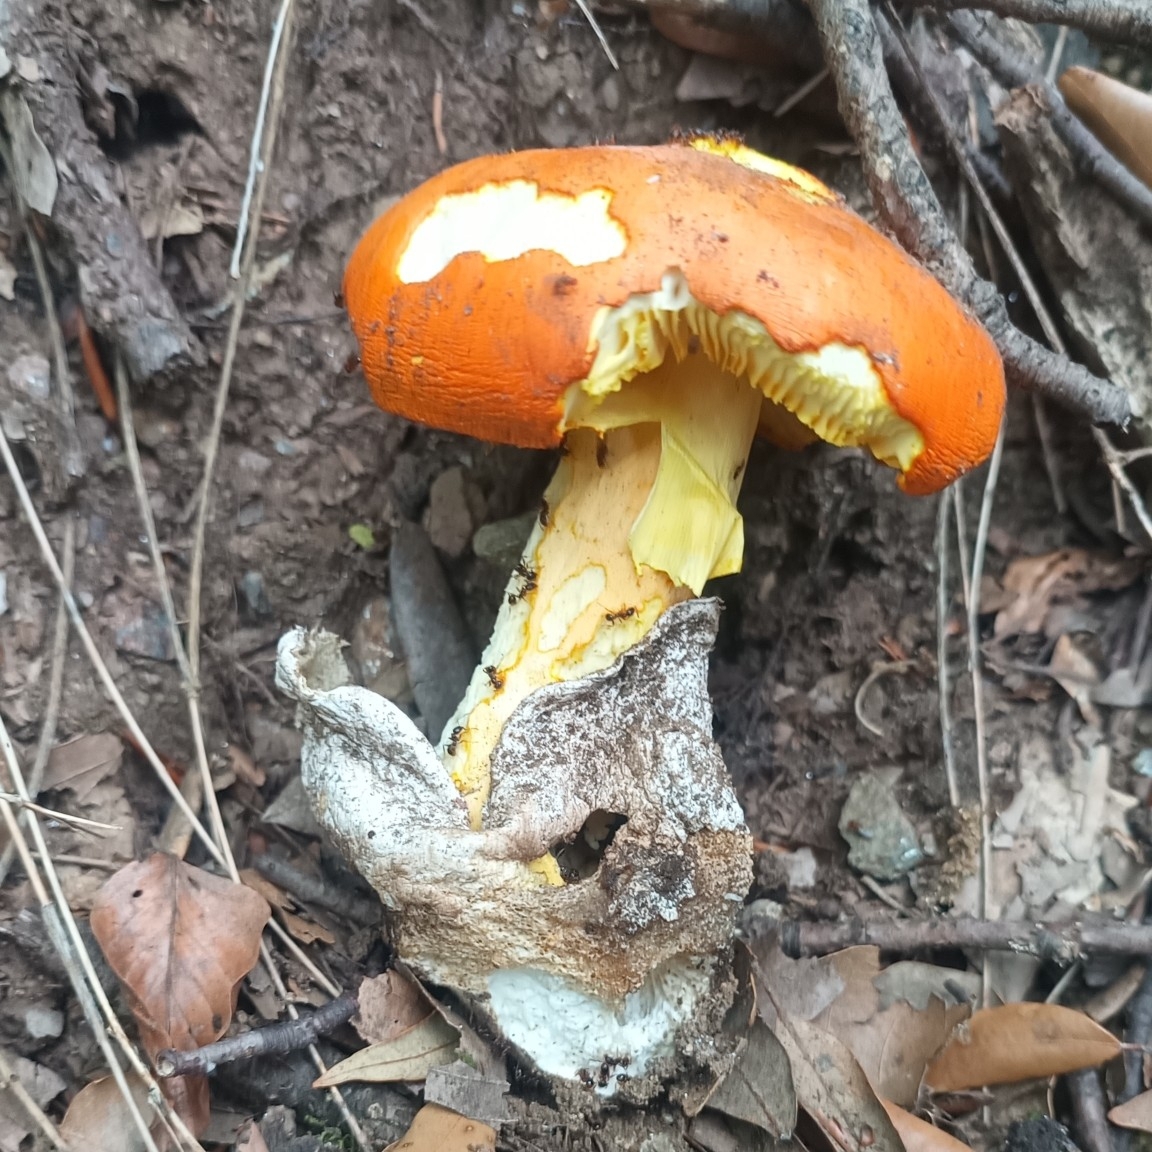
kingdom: Fungi
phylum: Basidiomycota
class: Agaricomycetes
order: Agaricales
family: Amanitaceae
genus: Amanita
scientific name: Amanita caesarea
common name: Caesar's amanita
